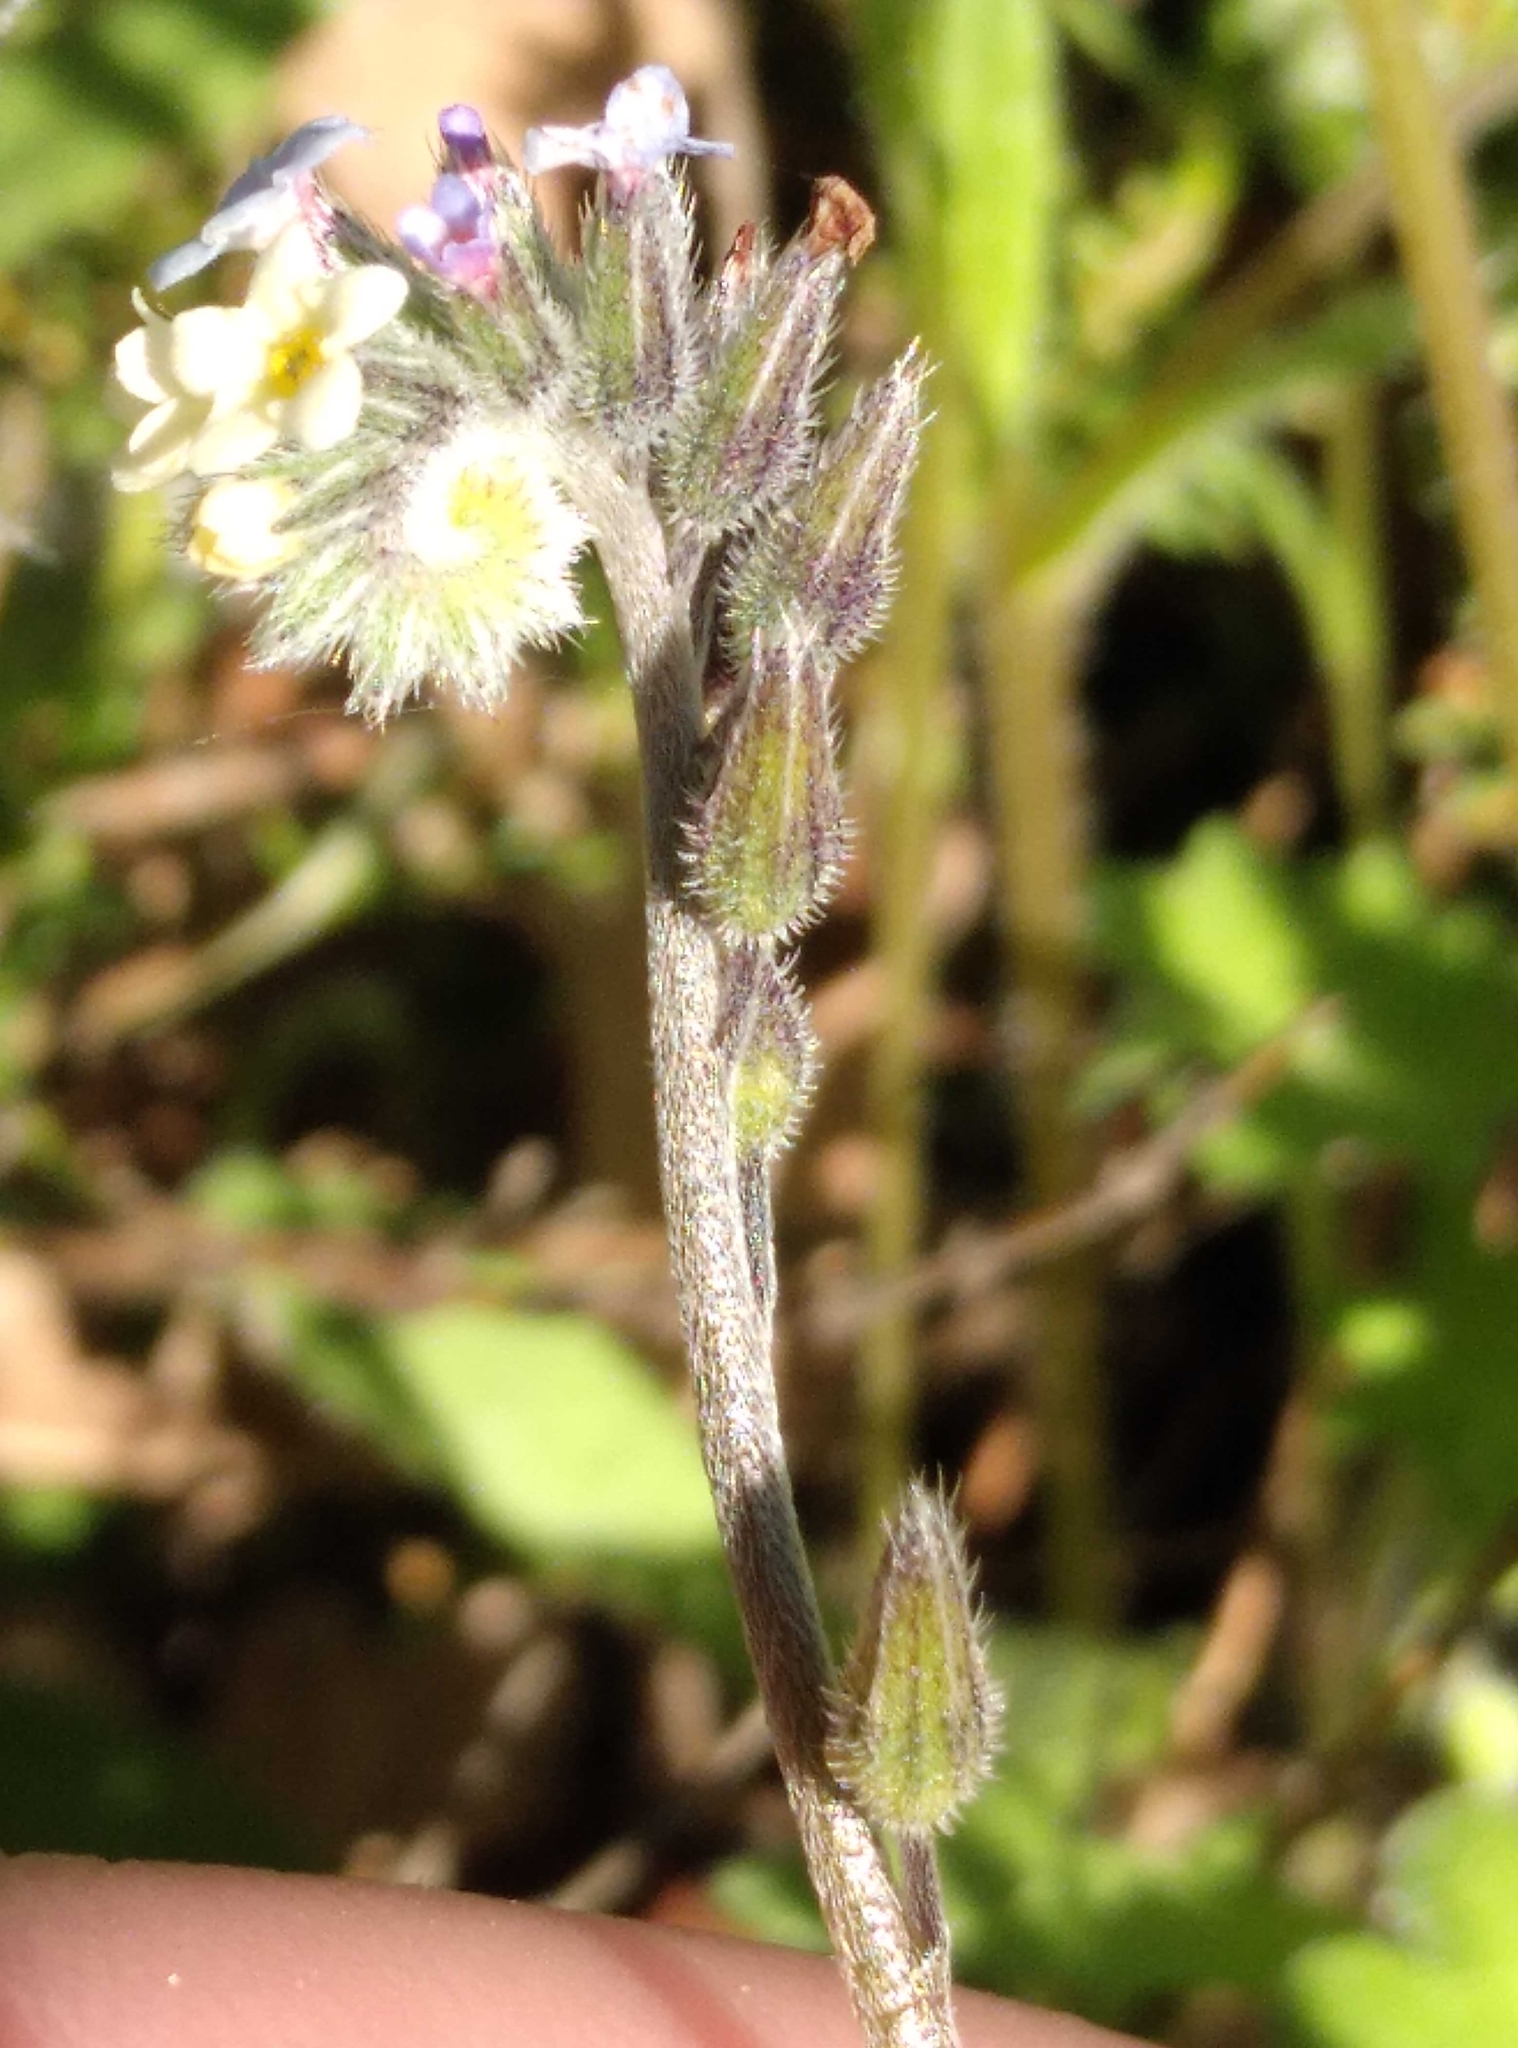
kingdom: Plantae
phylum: Tracheophyta
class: Magnoliopsida
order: Boraginales
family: Boraginaceae
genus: Myosotis
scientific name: Myosotis discolor
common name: Changing forget-me-not
